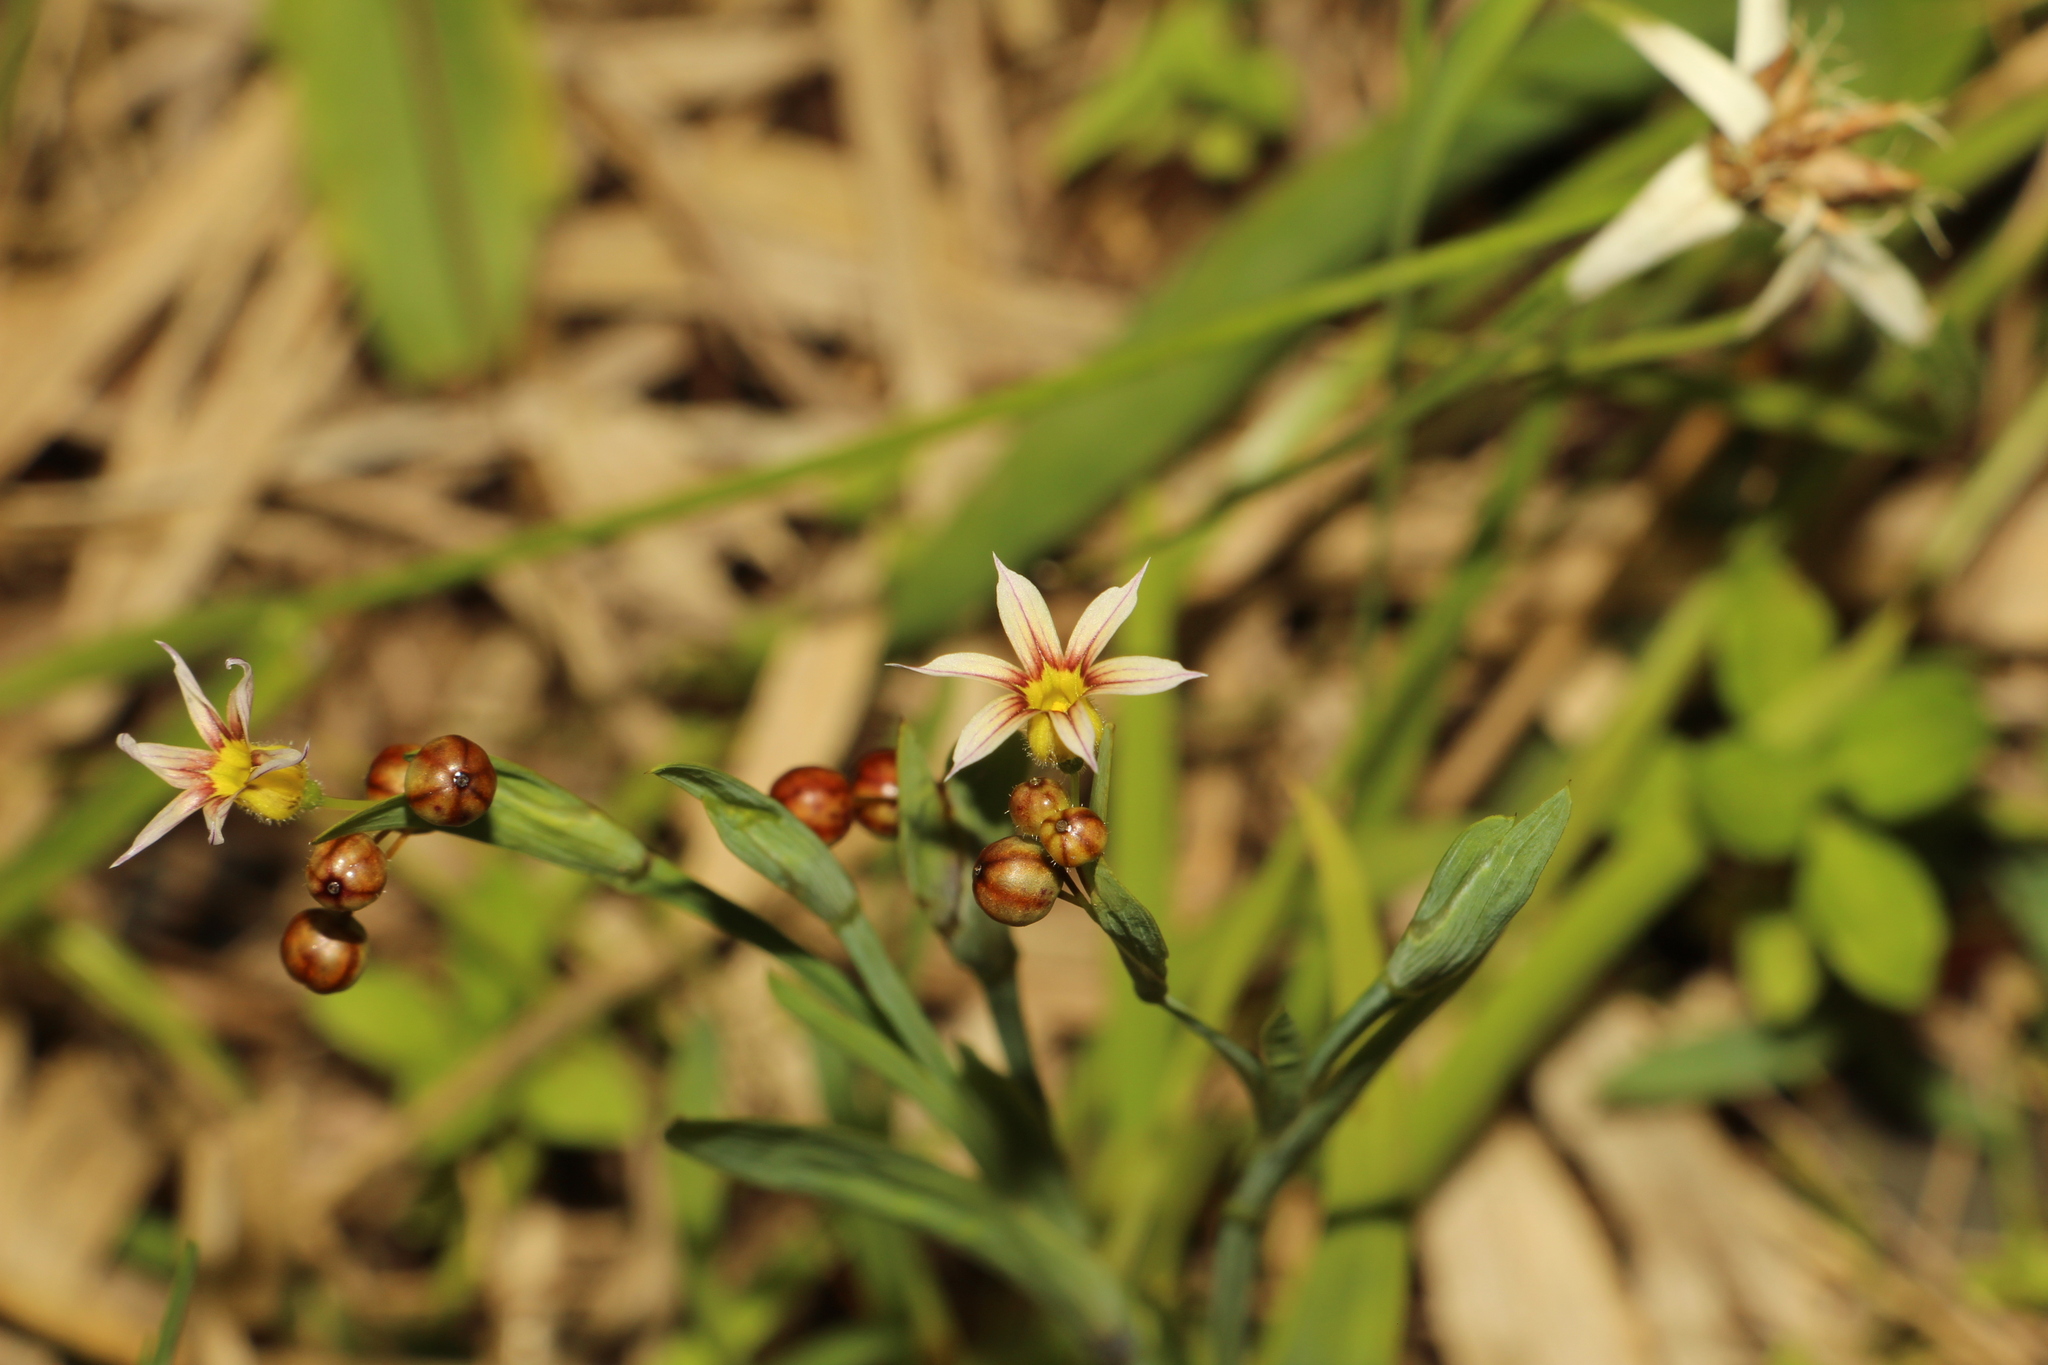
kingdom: Plantae
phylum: Tracheophyta
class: Liliopsida
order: Asparagales
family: Iridaceae
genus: Sisyrinchium
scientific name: Sisyrinchium micranthum
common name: Bermuda pigroot
